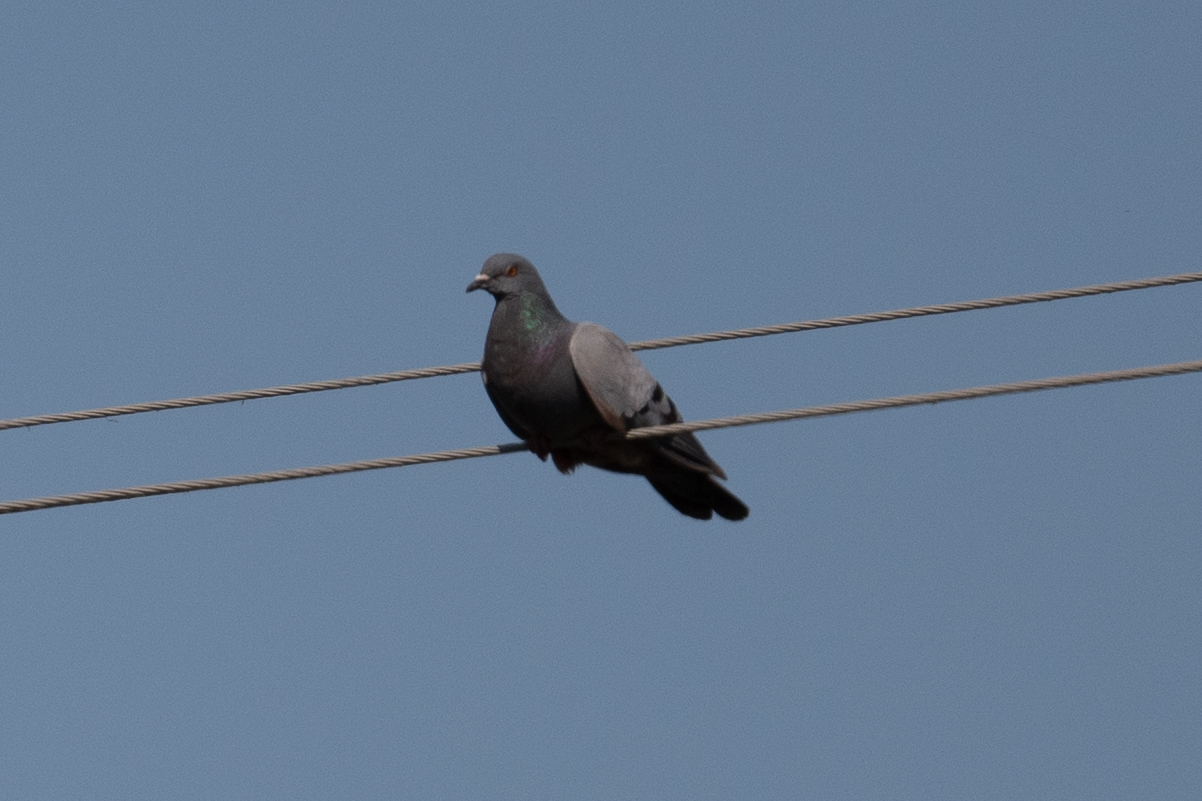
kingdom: Animalia
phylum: Chordata
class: Aves
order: Columbiformes
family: Columbidae
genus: Columba
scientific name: Columba livia
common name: Rock pigeon
